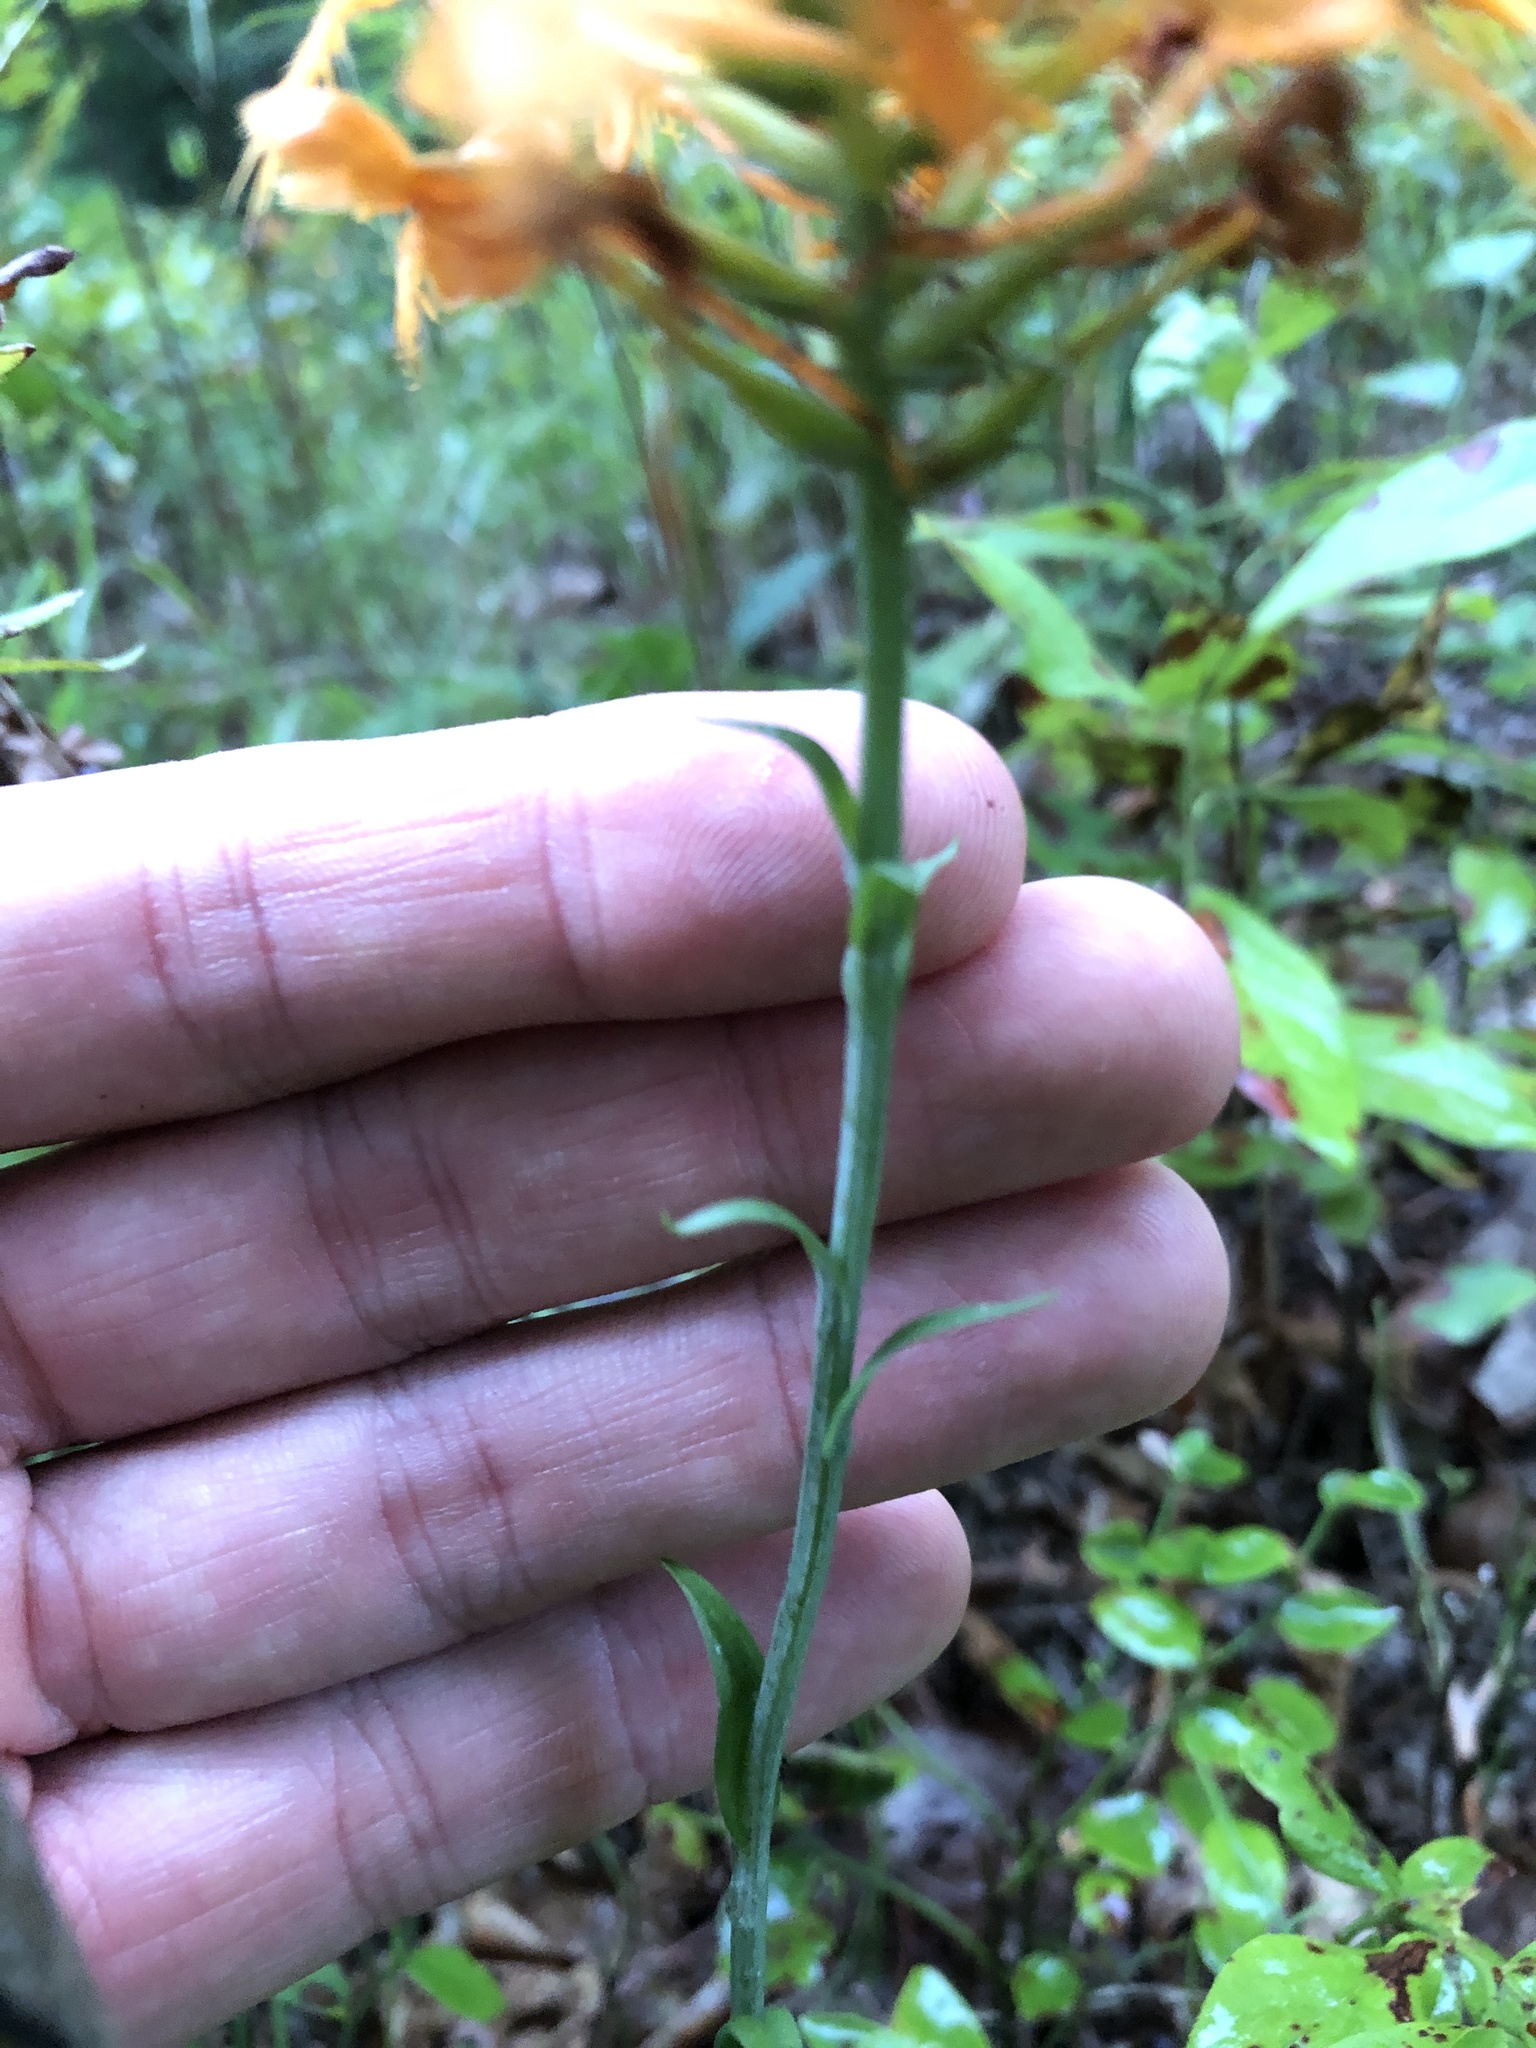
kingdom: Plantae
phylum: Tracheophyta
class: Liliopsida
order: Asparagales
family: Orchidaceae
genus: Platanthera
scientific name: Platanthera ciliaris
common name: Yellow fringed orchid
